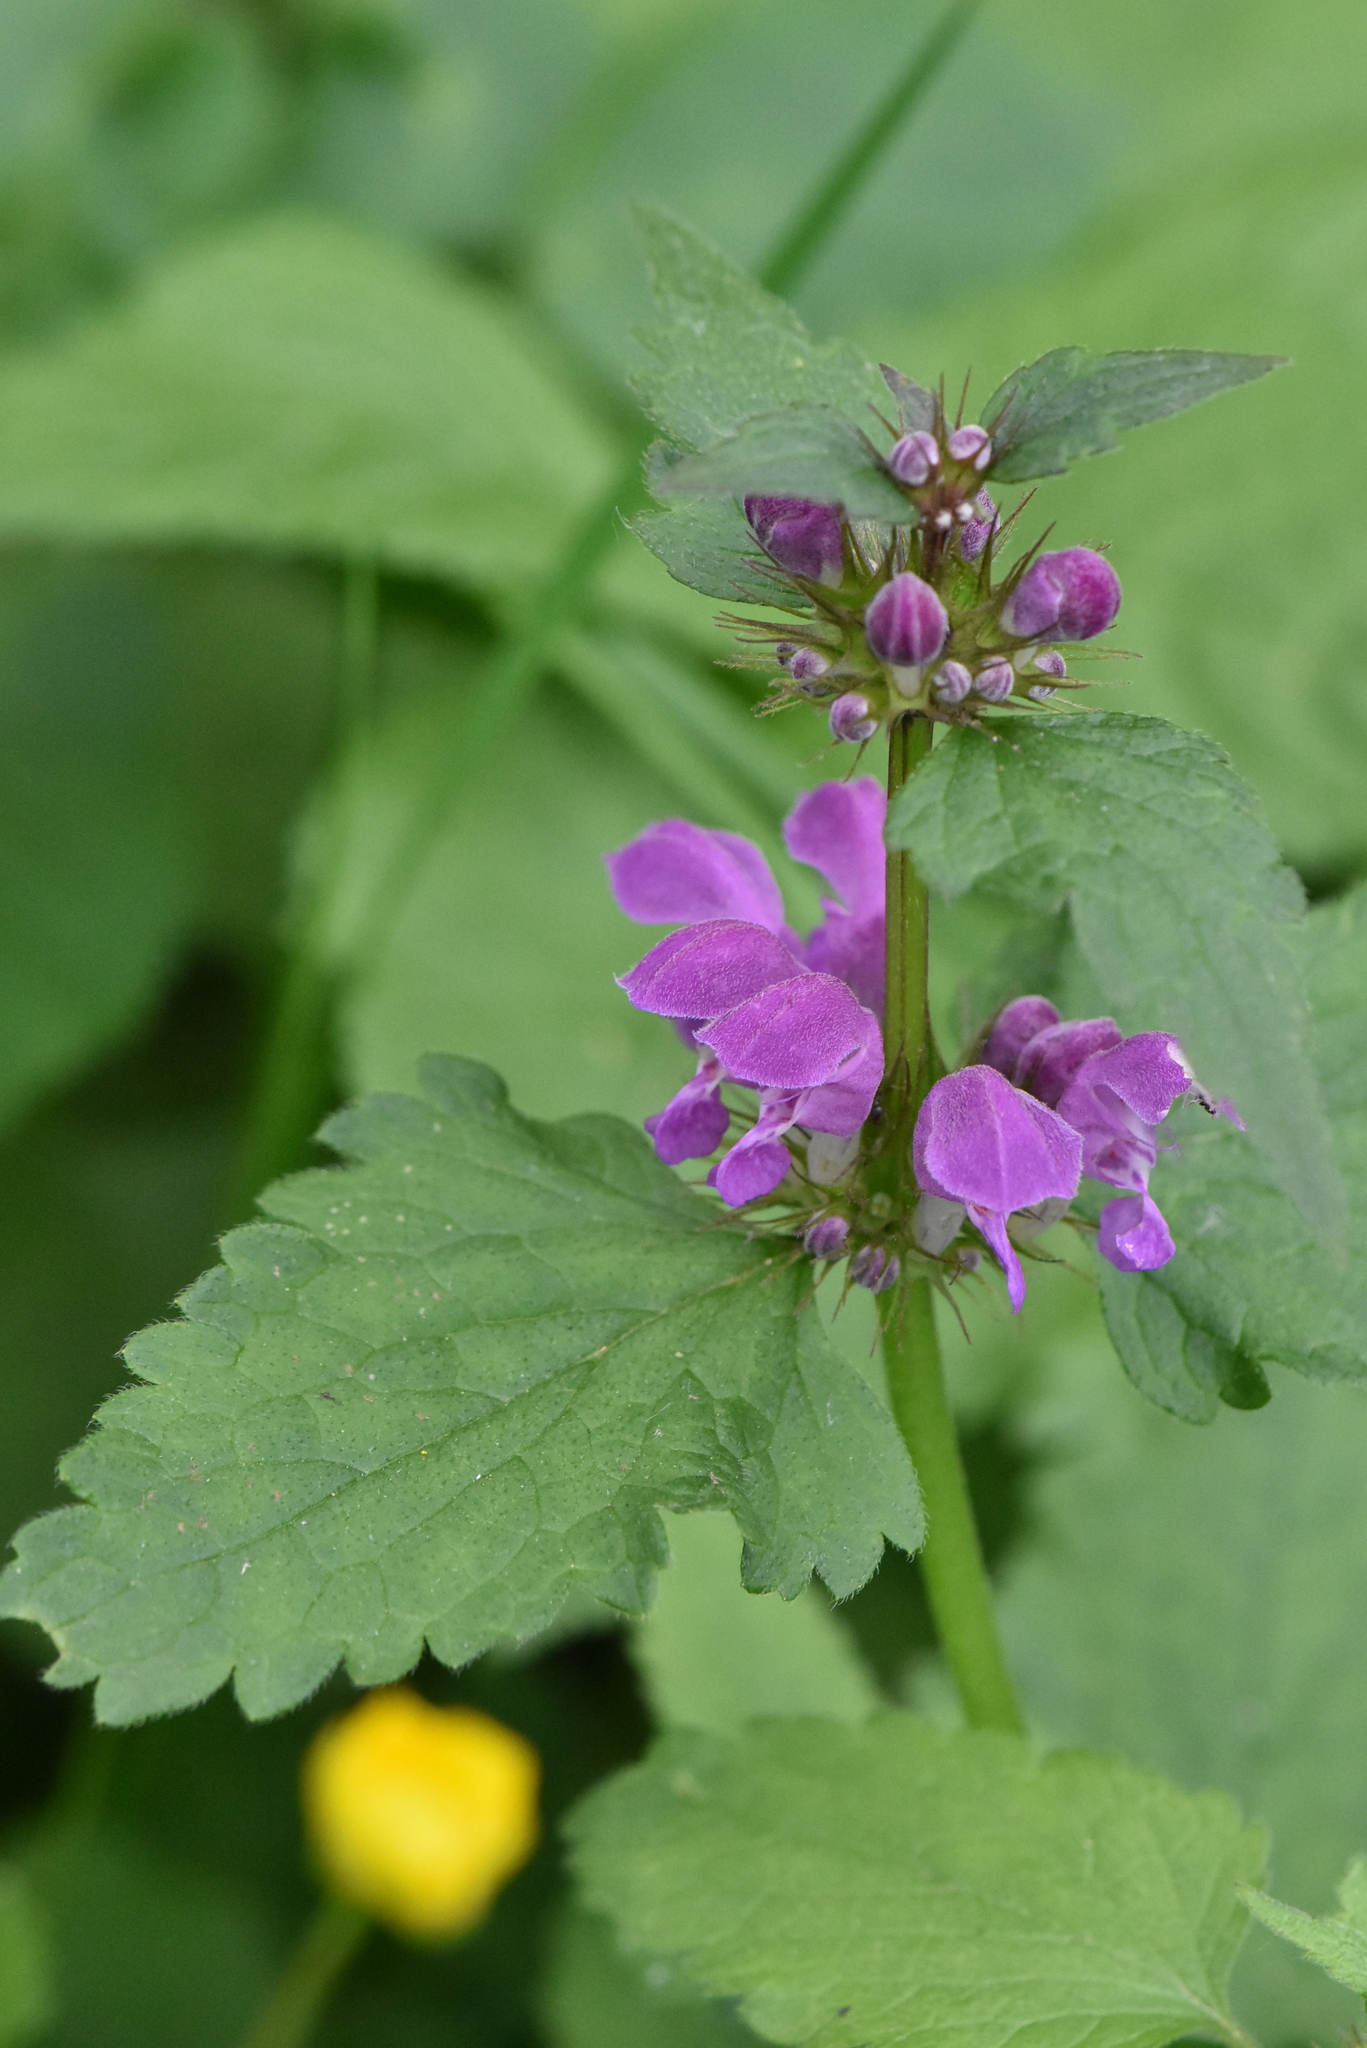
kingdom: Plantae
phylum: Tracheophyta
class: Magnoliopsida
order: Lamiales
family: Lamiaceae
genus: Lamium
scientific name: Lamium maculatum
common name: Spotted dead-nettle
